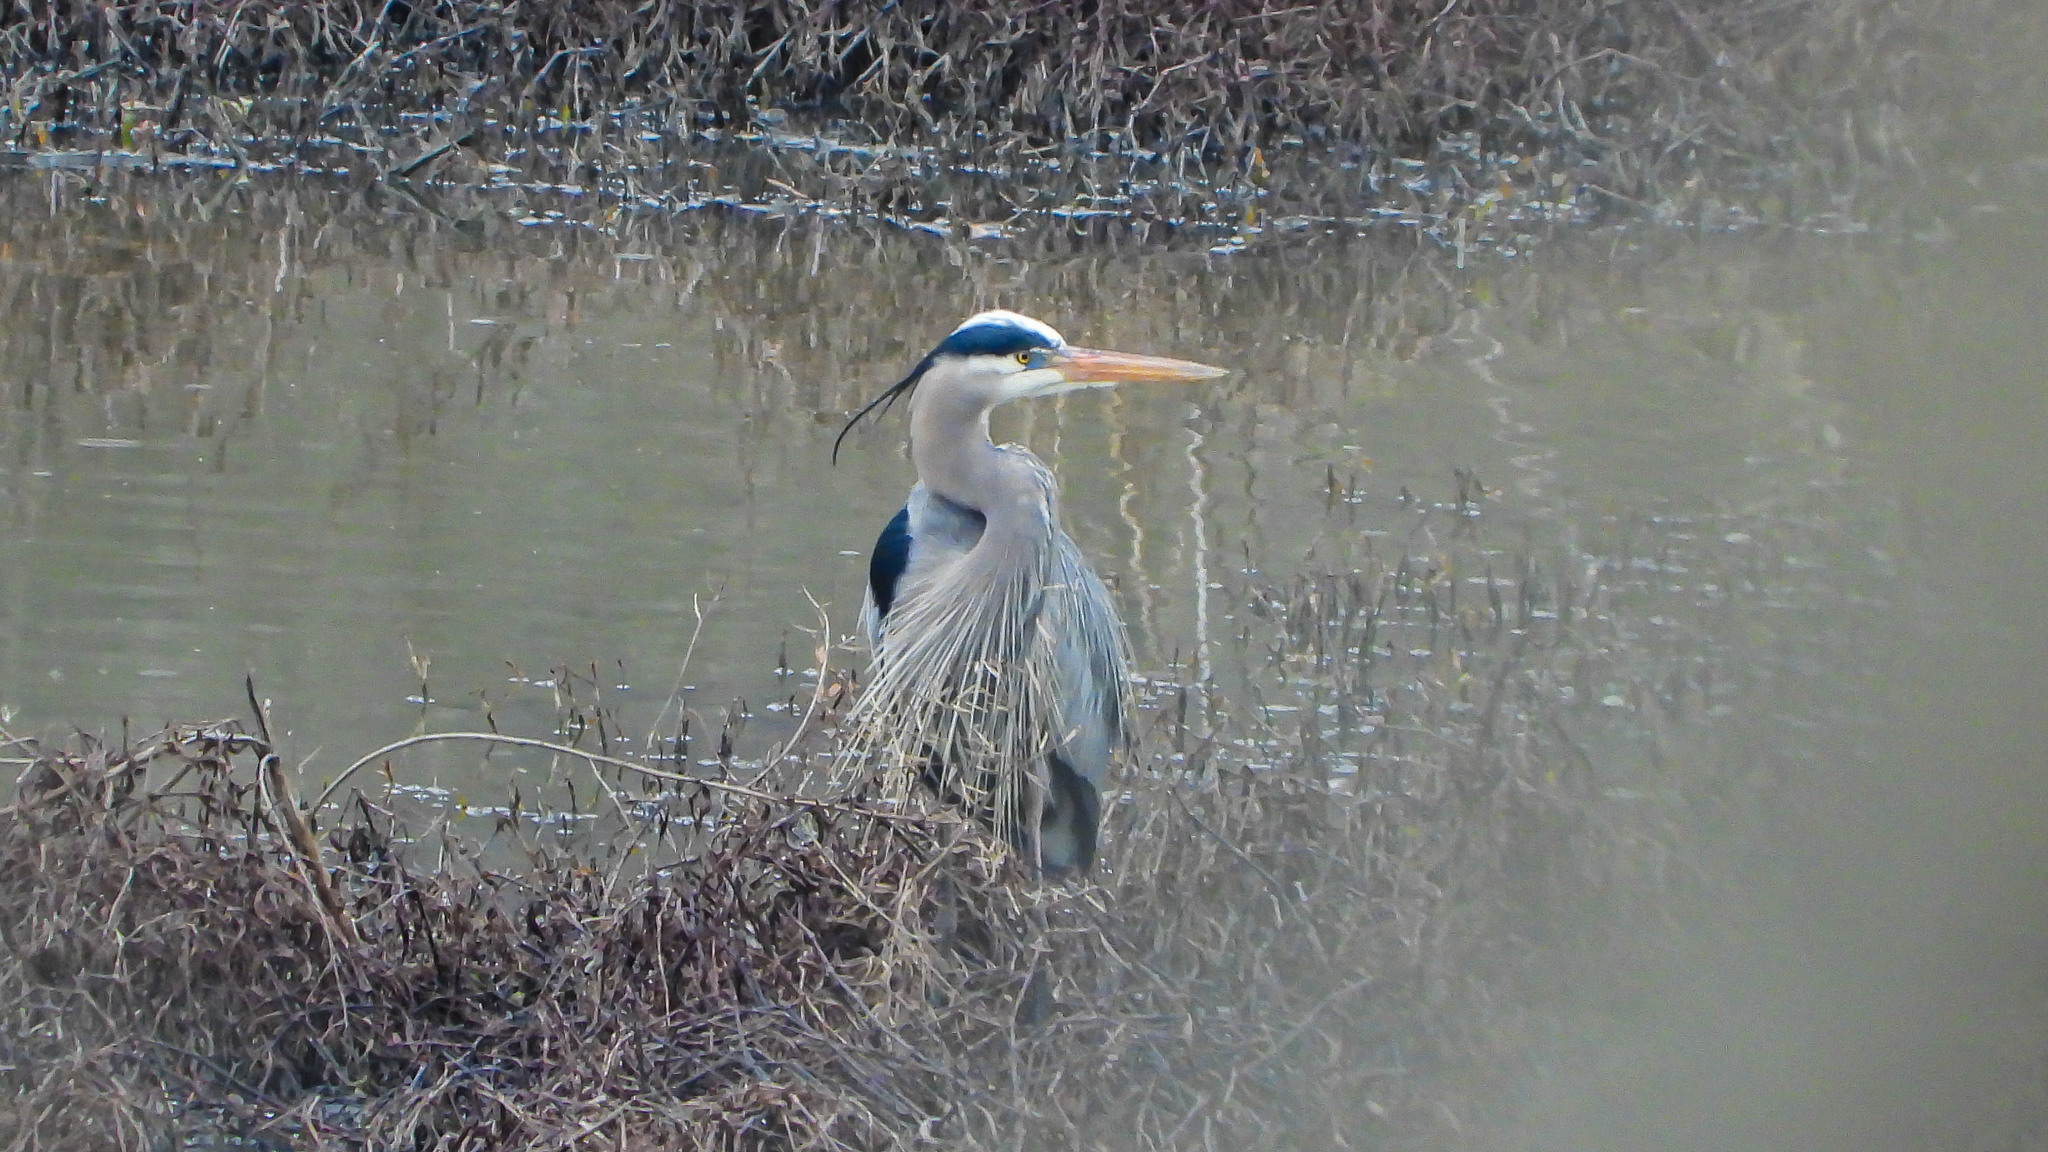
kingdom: Animalia
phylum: Chordata
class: Aves
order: Pelecaniformes
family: Ardeidae
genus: Ardea
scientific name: Ardea herodias
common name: Great blue heron
